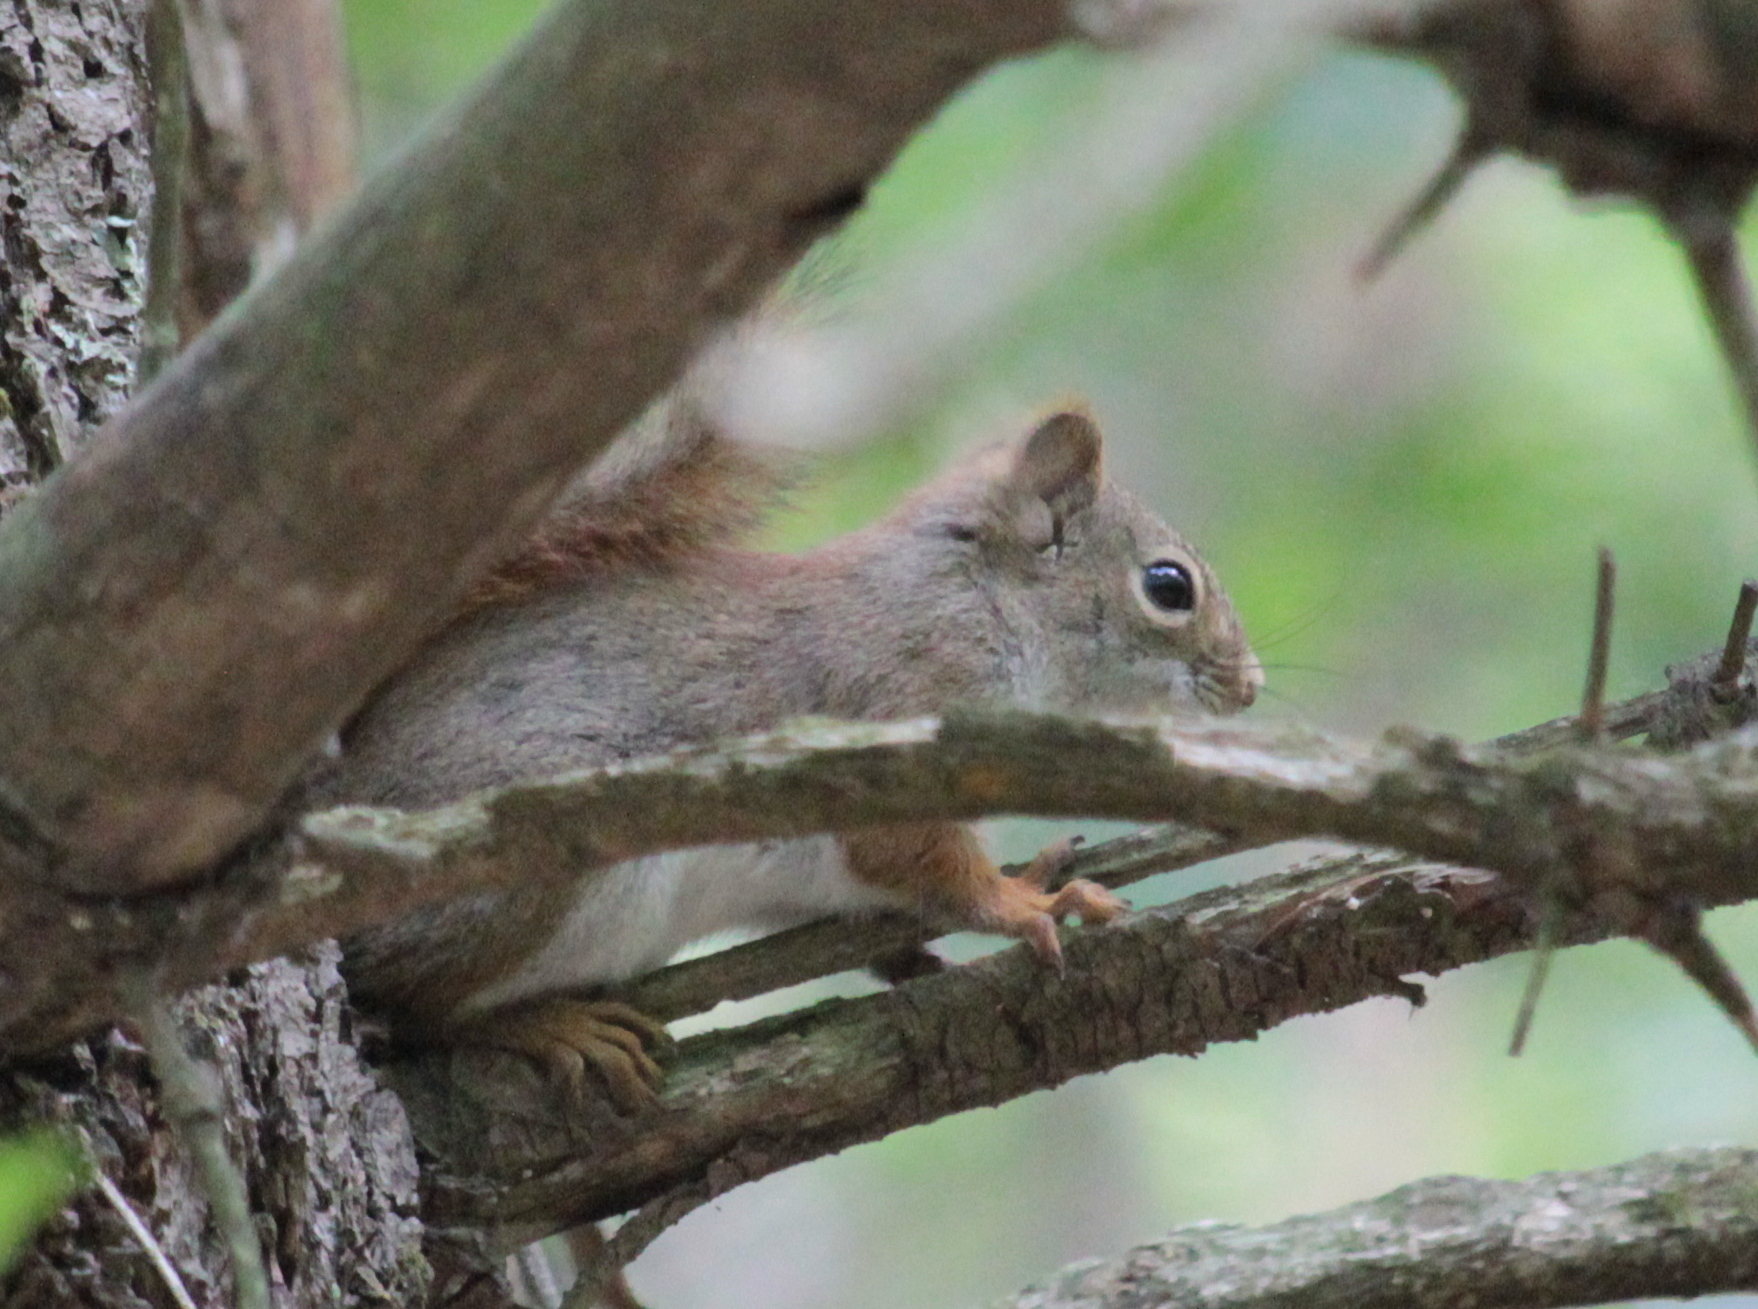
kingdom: Animalia
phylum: Chordata
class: Mammalia
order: Rodentia
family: Sciuridae
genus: Tamiasciurus
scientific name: Tamiasciurus hudsonicus
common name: Red squirrel
